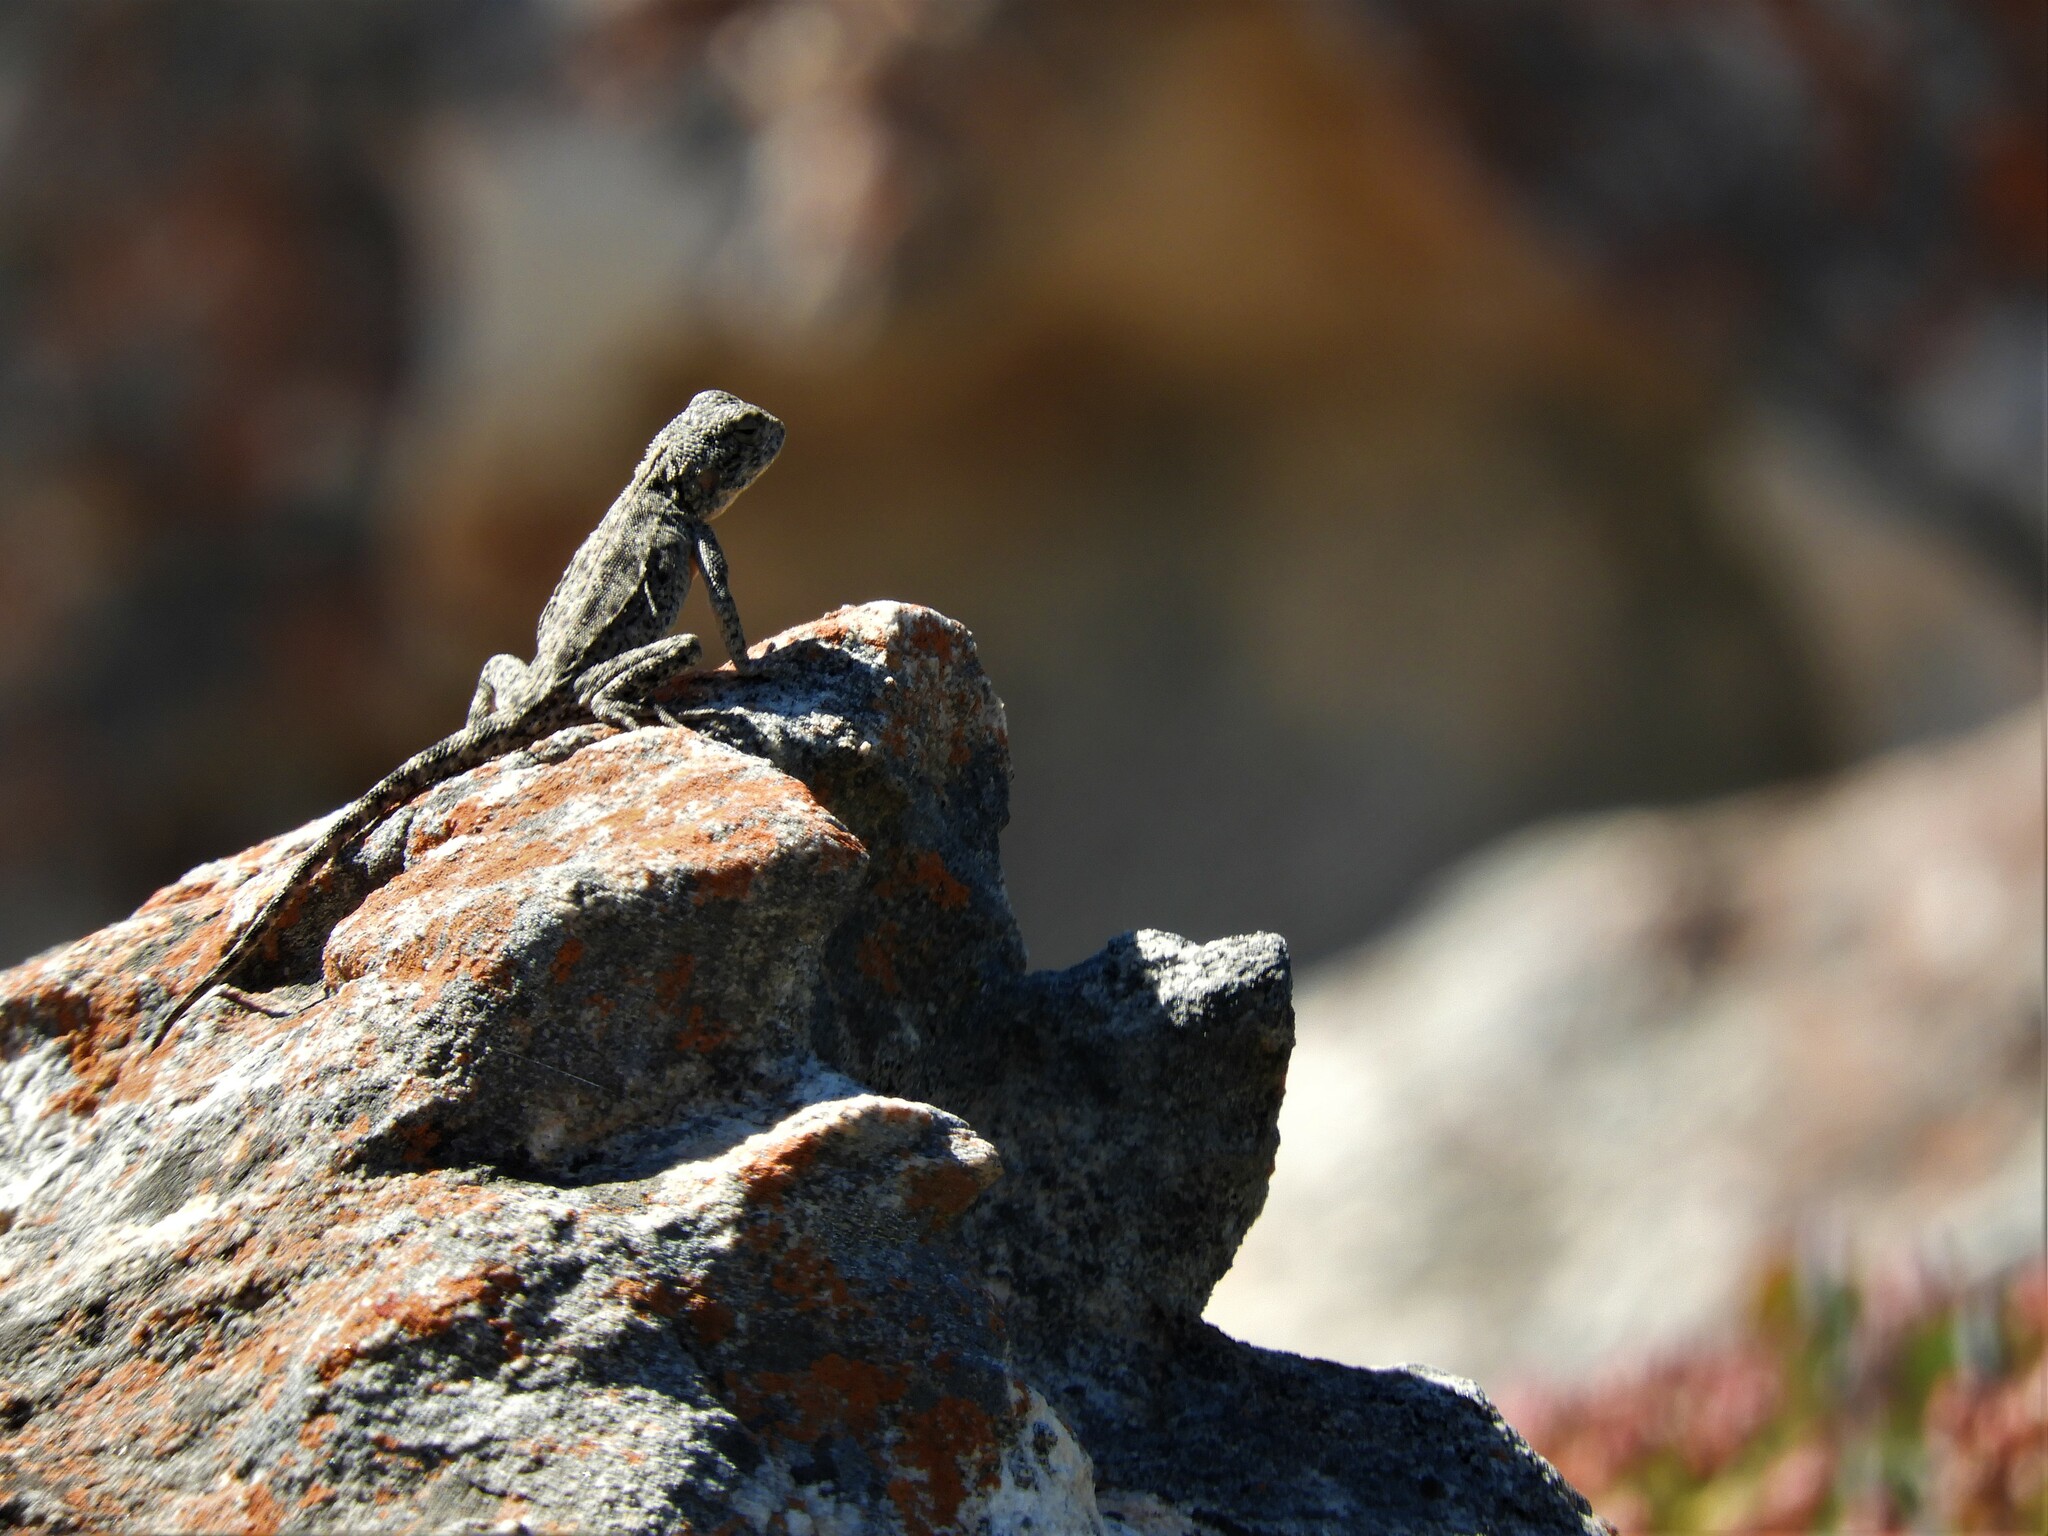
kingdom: Animalia
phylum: Chordata
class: Squamata
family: Agamidae
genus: Agama
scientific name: Agama atra
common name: Southern african rock agama
